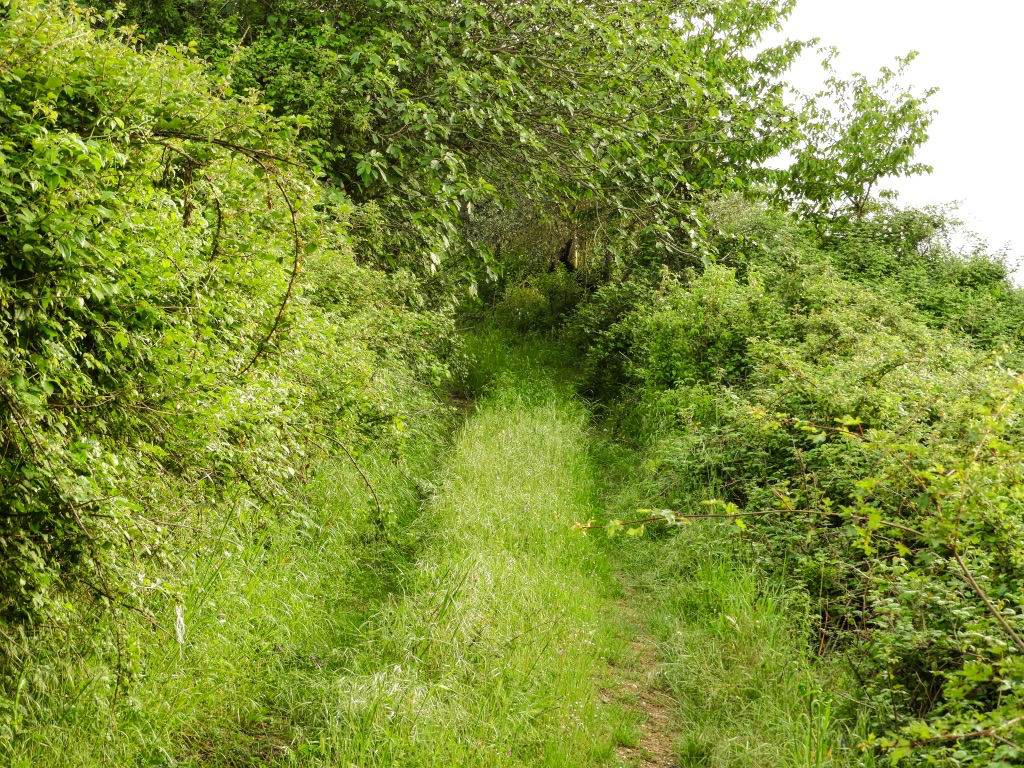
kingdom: Animalia
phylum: Arthropoda
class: Insecta
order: Hymenoptera
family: Tenthredinidae
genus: Macrophya
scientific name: Macrophya
